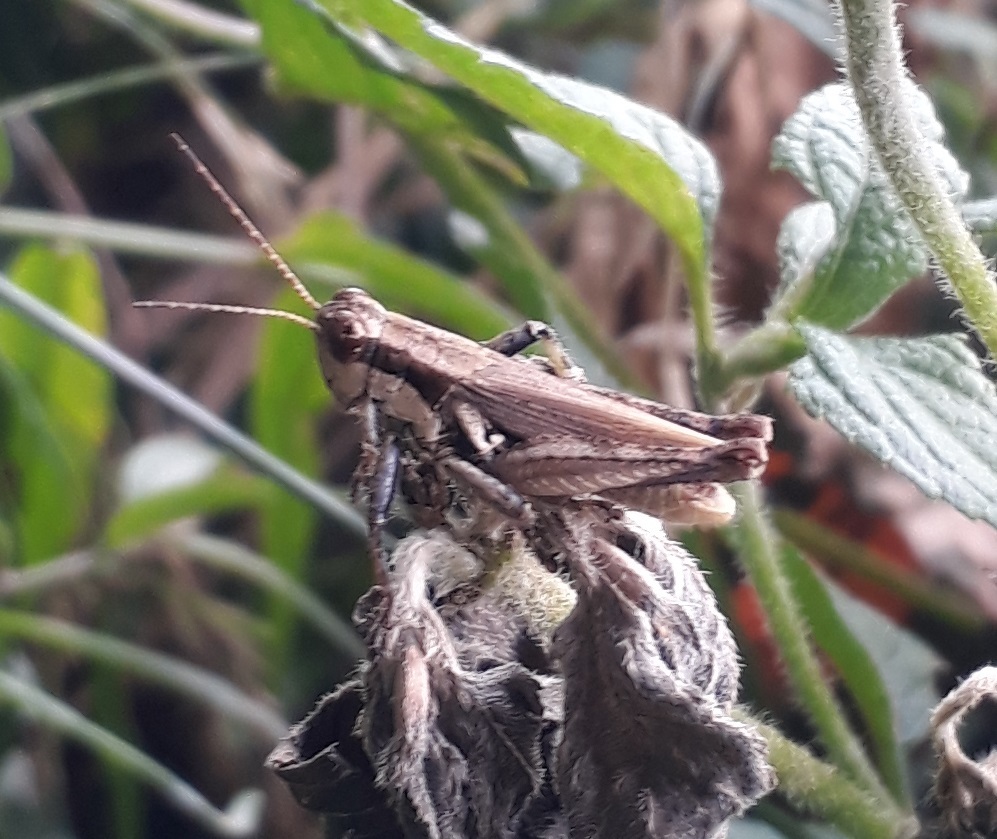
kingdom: Animalia
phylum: Arthropoda
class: Insecta
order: Orthoptera
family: Acrididae
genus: Ronderosia
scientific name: Ronderosia bergii
